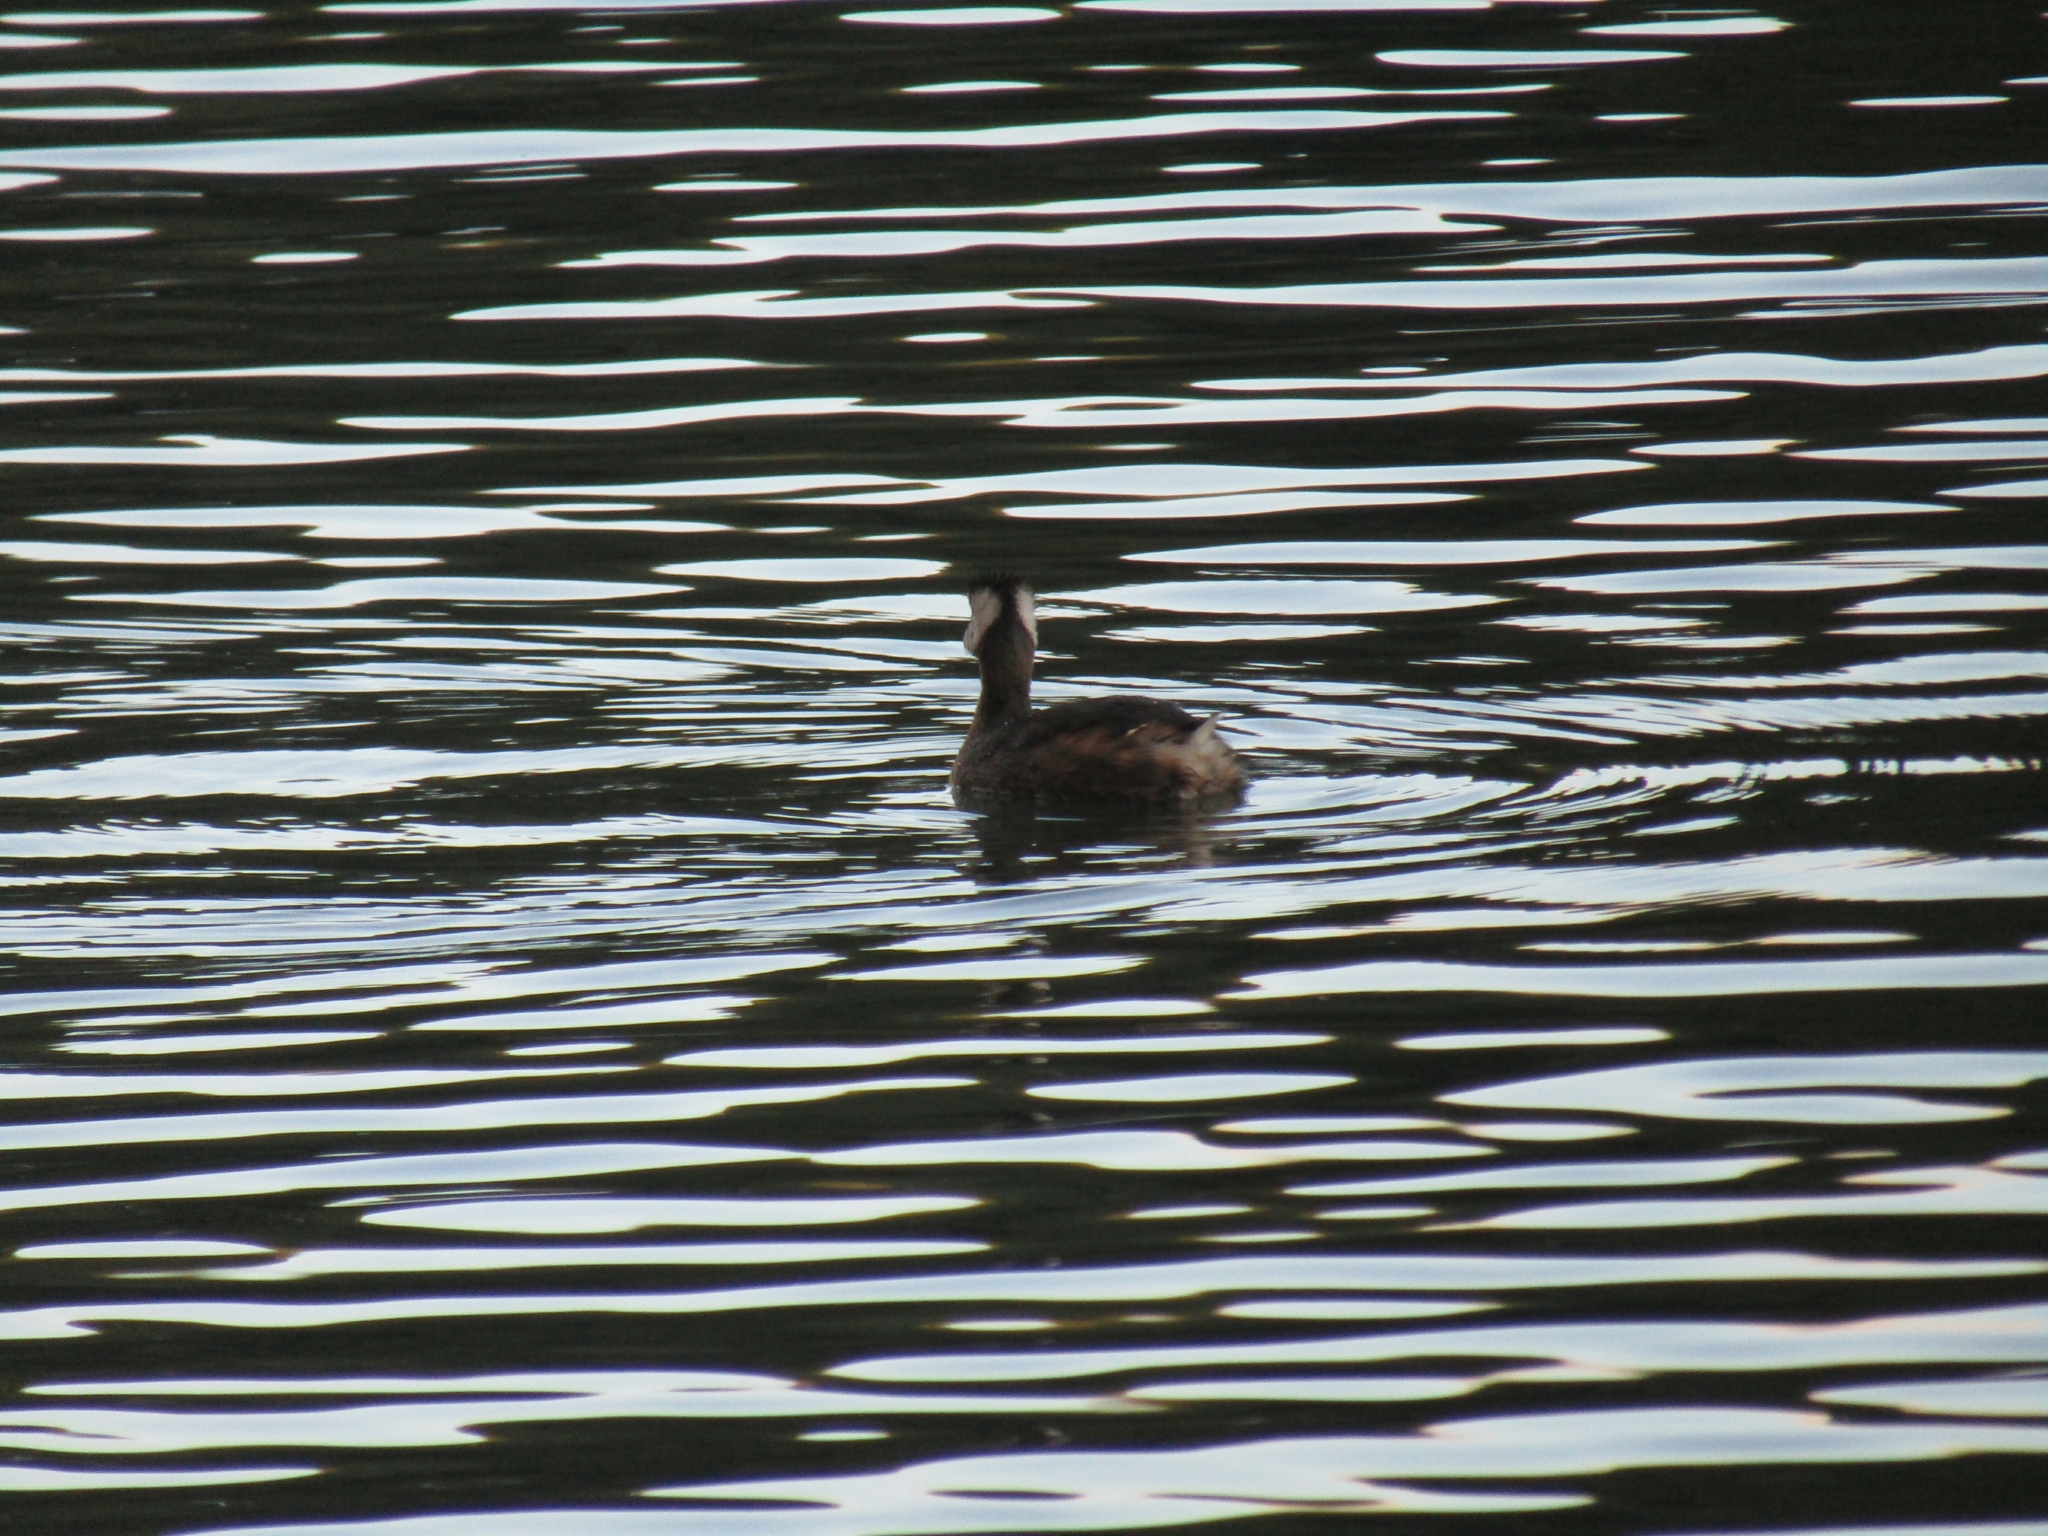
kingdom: Animalia
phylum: Chordata
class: Aves
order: Podicipediformes
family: Podicipedidae
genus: Rollandia
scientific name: Rollandia rolland
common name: White-tufted grebe
